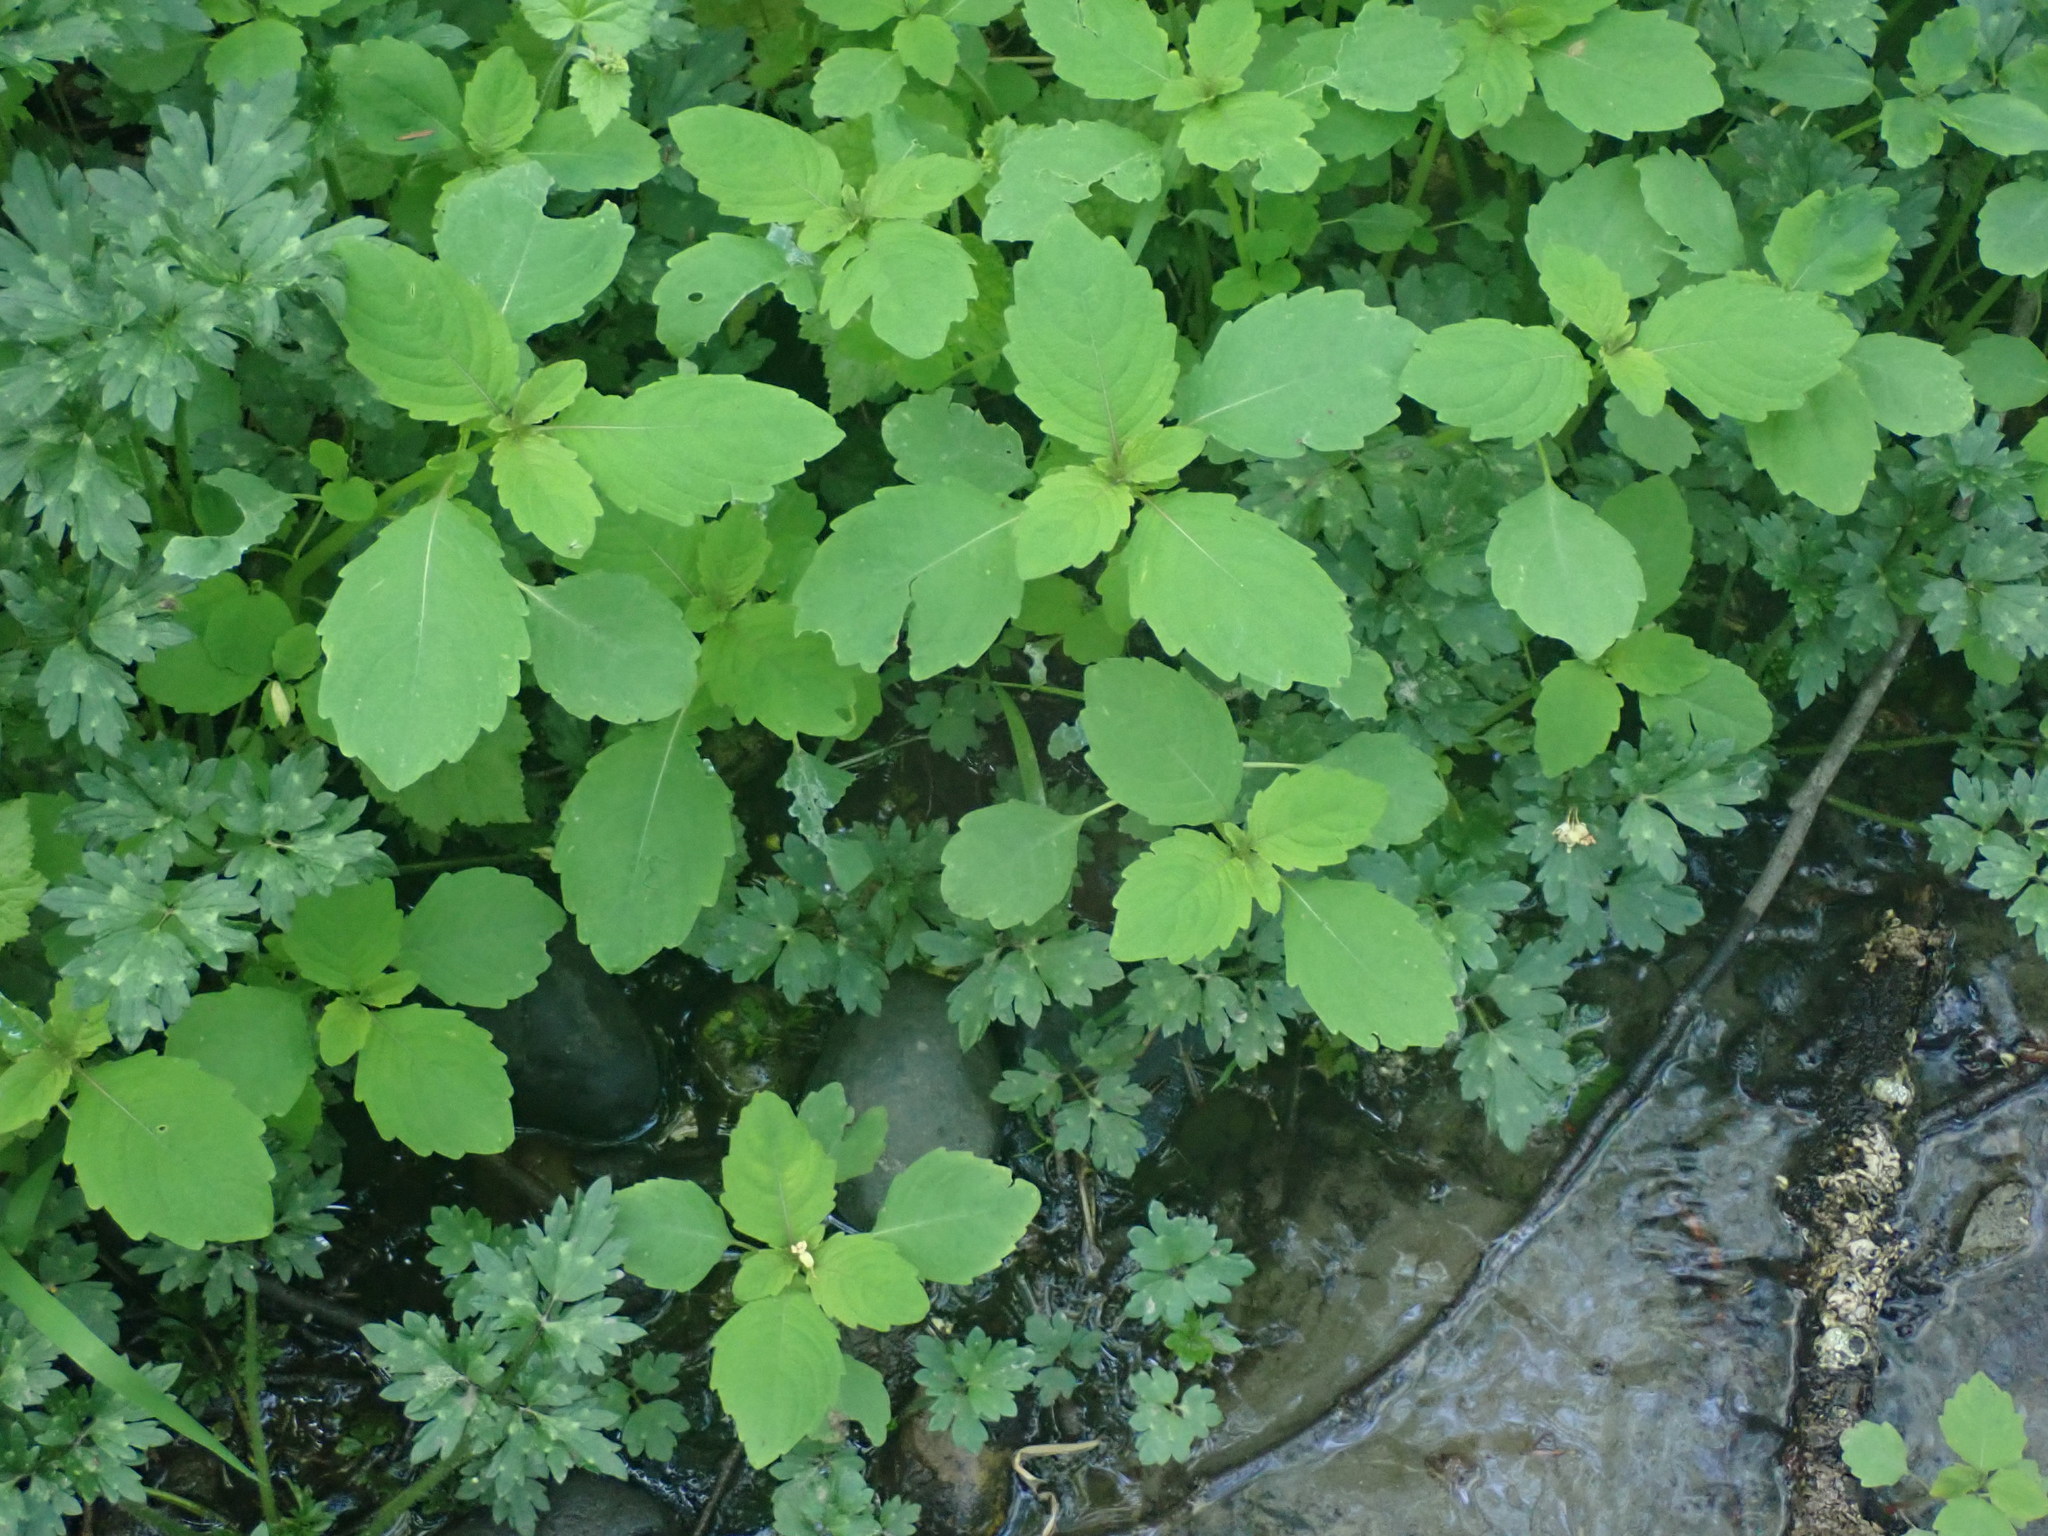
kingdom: Plantae
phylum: Tracheophyta
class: Magnoliopsida
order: Ericales
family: Balsaminaceae
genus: Impatiens
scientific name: Impatiens capensis
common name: Orange balsam
